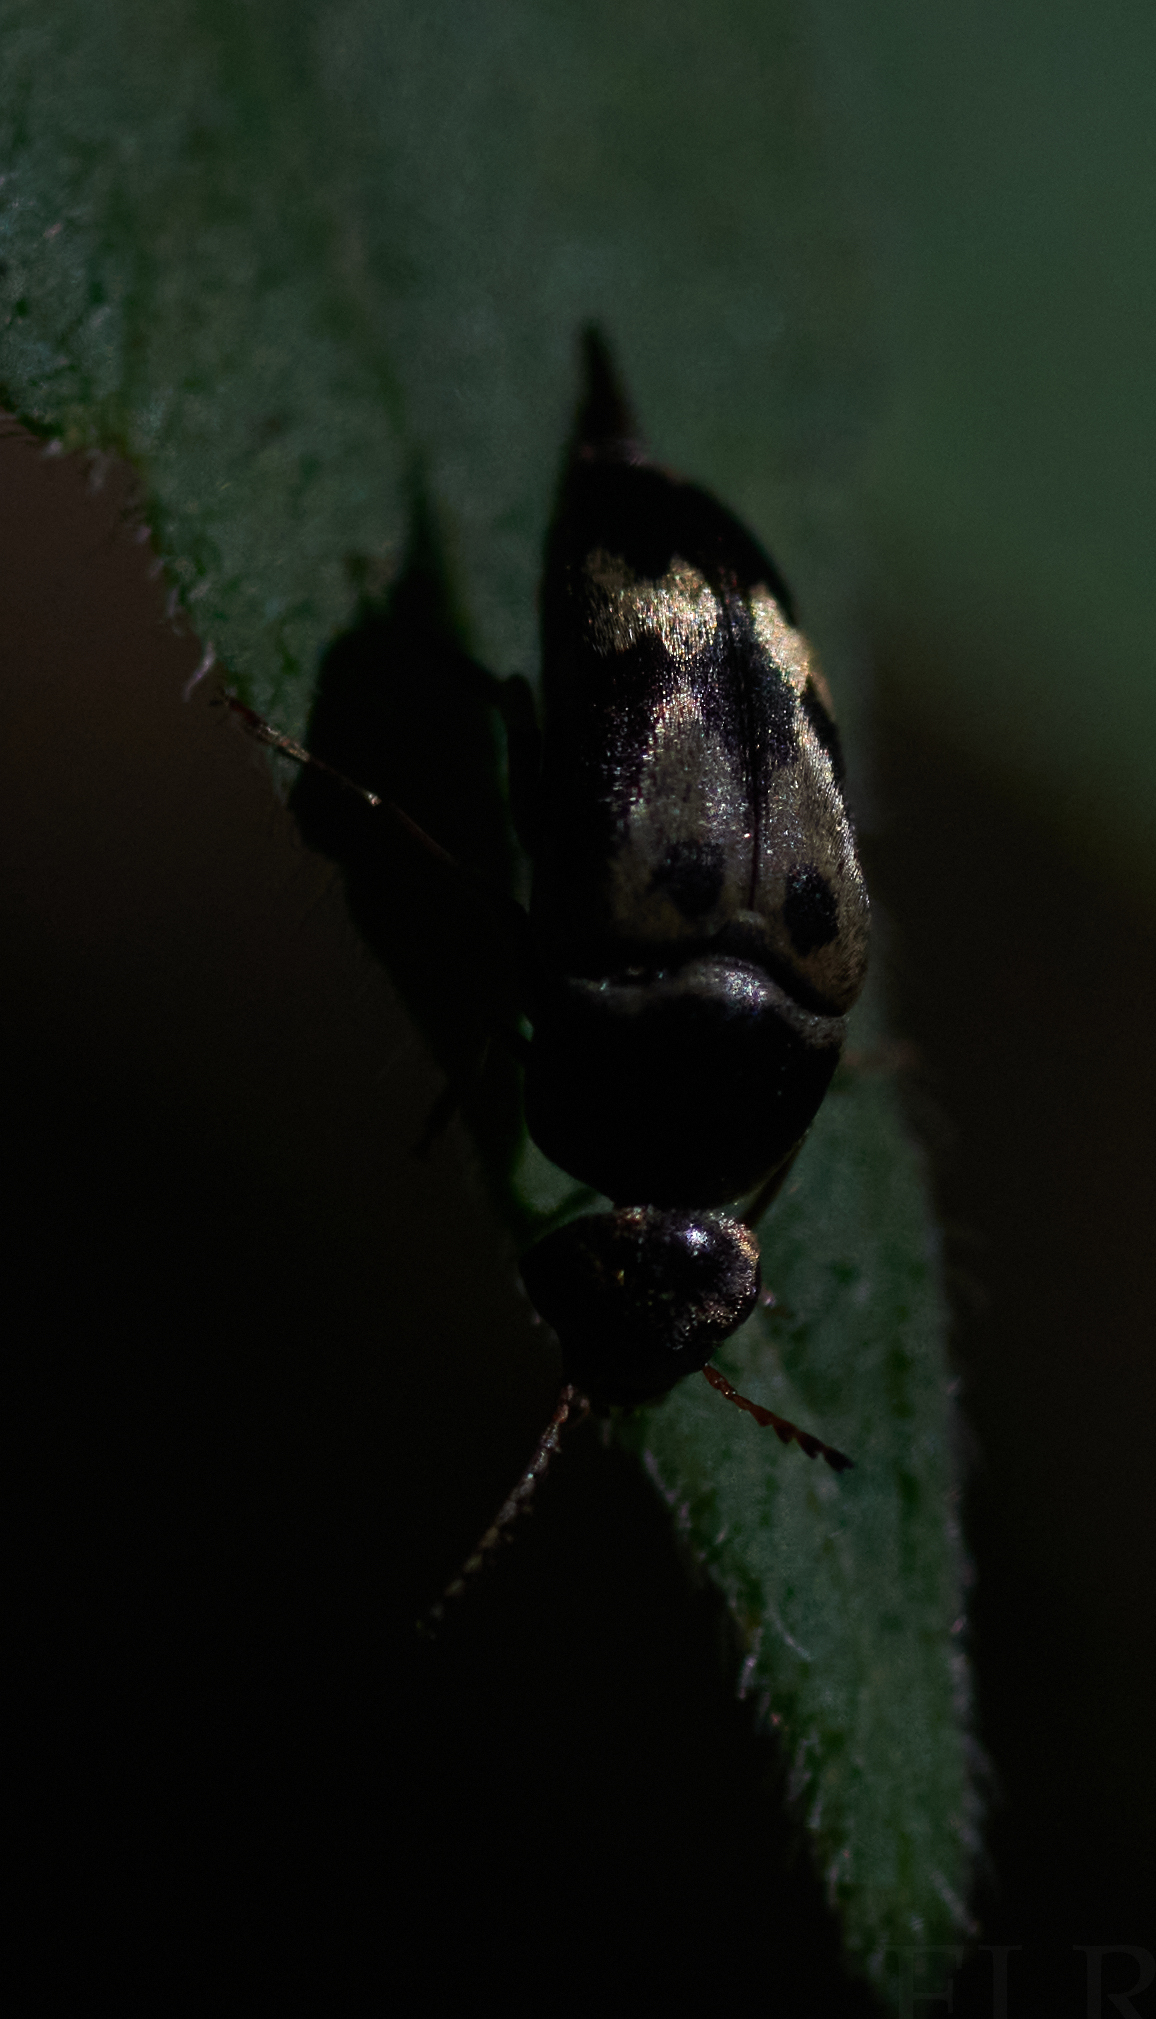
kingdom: Animalia
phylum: Arthropoda
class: Insecta
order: Coleoptera
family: Mordellidae
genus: Glipa
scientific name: Glipa oculata
